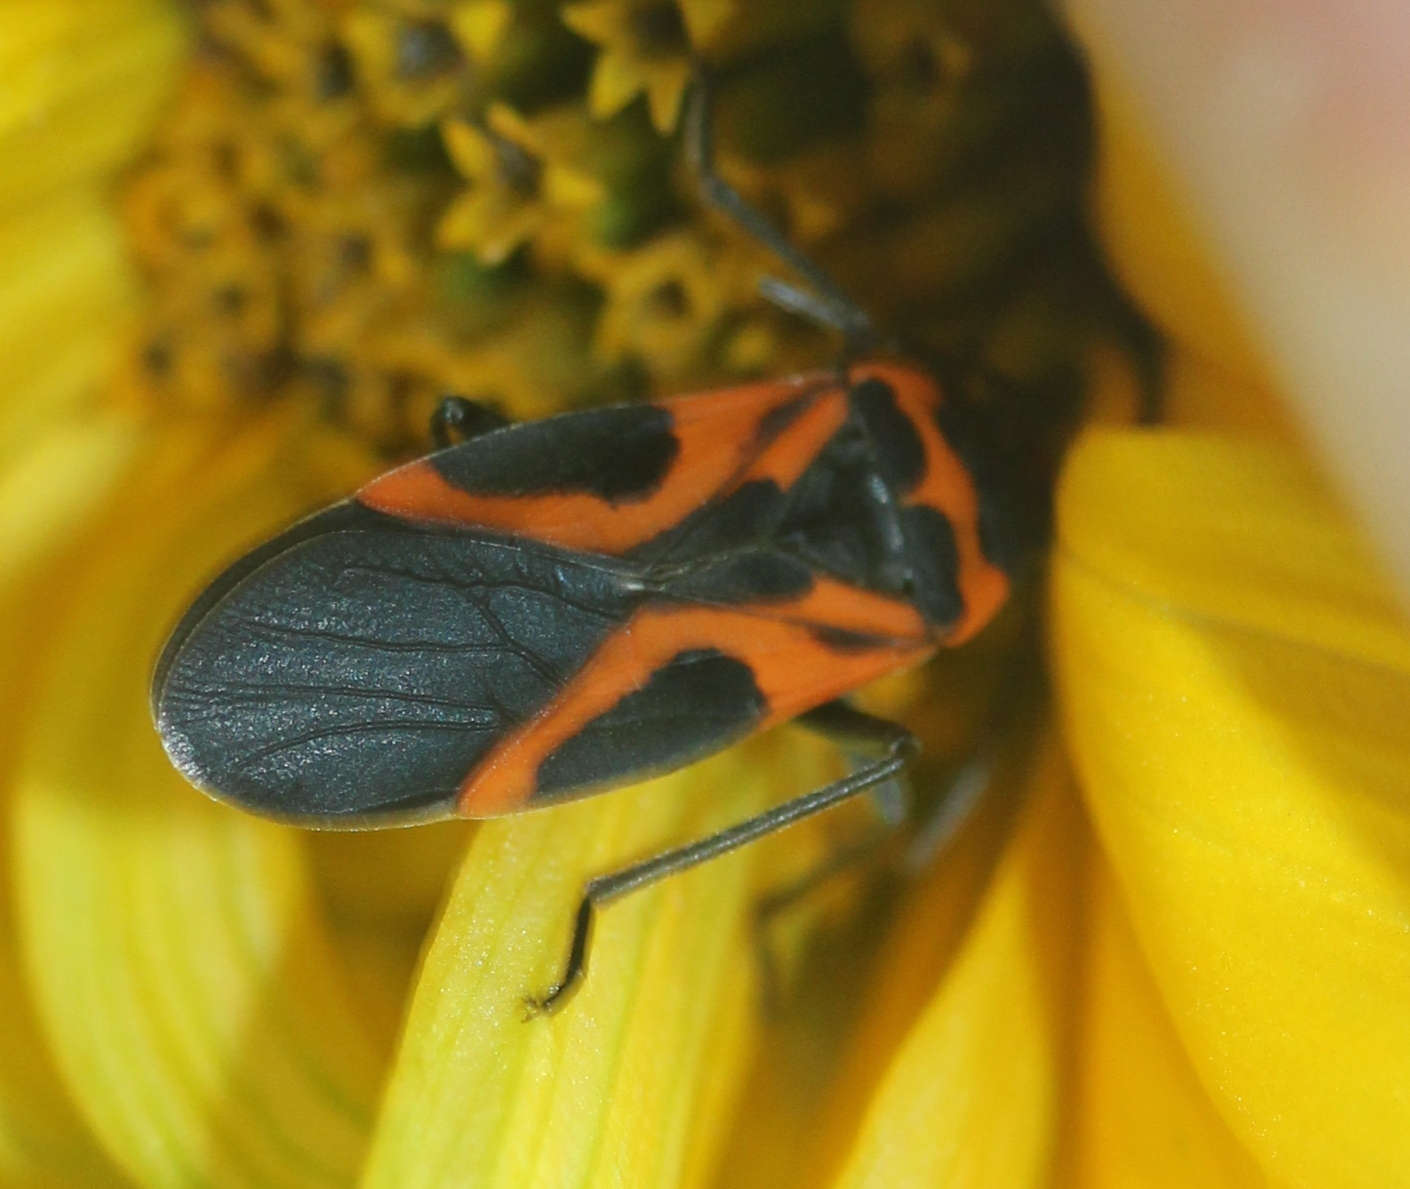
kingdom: Animalia
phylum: Arthropoda
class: Insecta
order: Hemiptera
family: Lygaeidae
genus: Lygaeus
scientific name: Lygaeus turcicus
